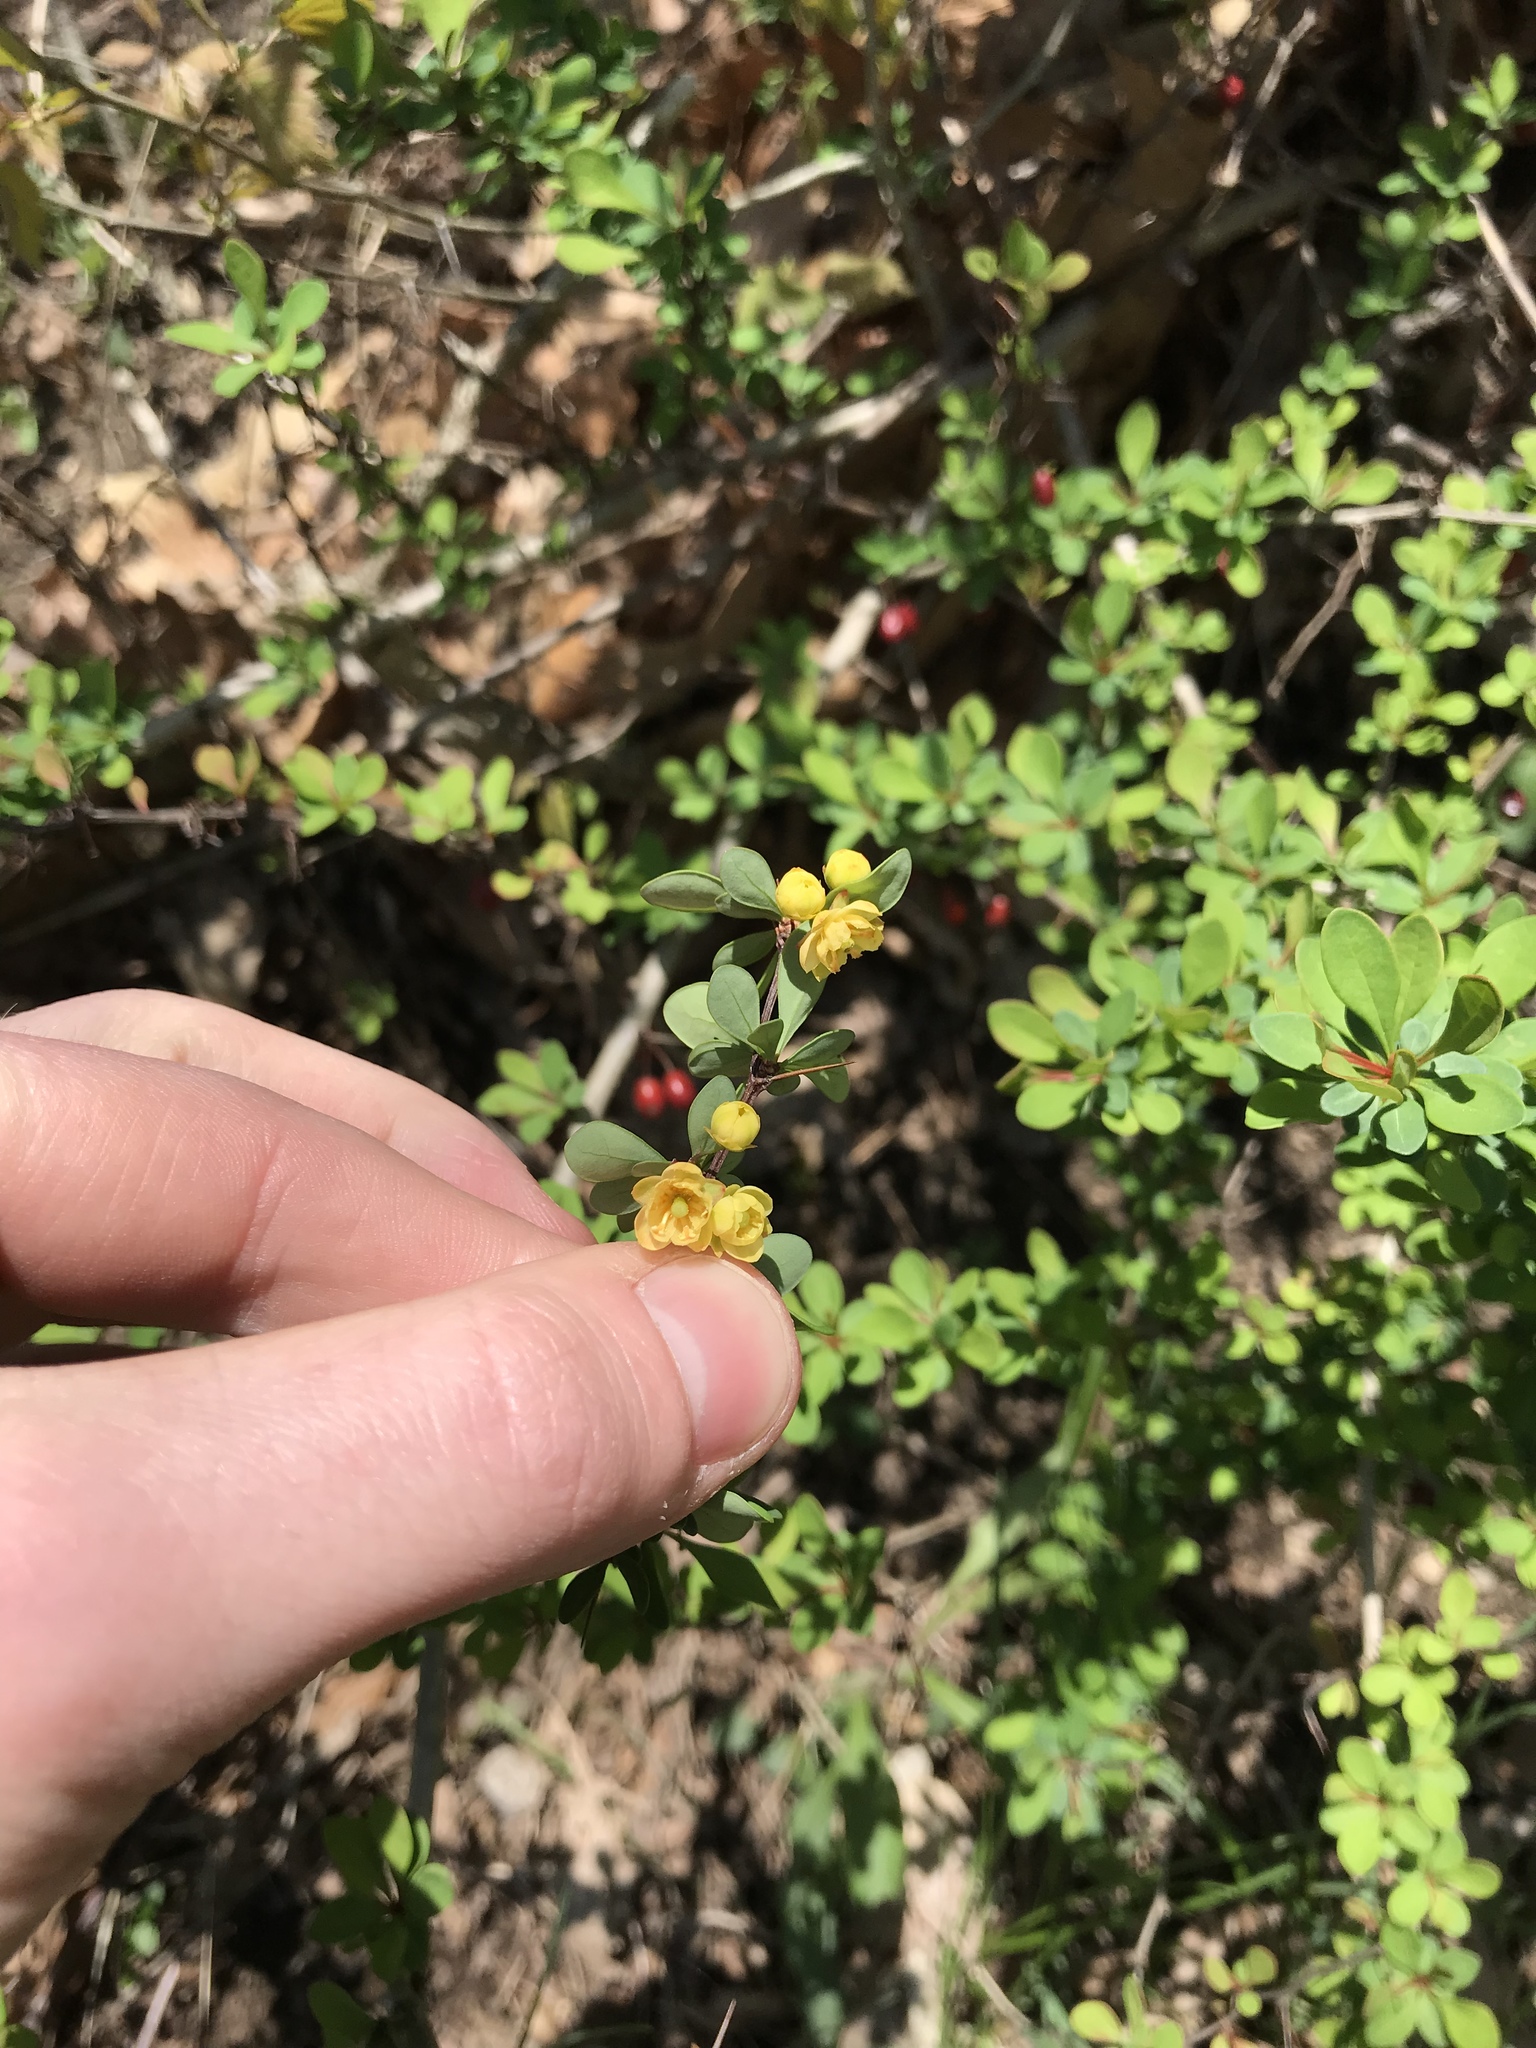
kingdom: Plantae
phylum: Tracheophyta
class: Magnoliopsida
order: Ranunculales
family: Berberidaceae
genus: Berberis
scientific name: Berberis thunbergii
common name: Japanese barberry
